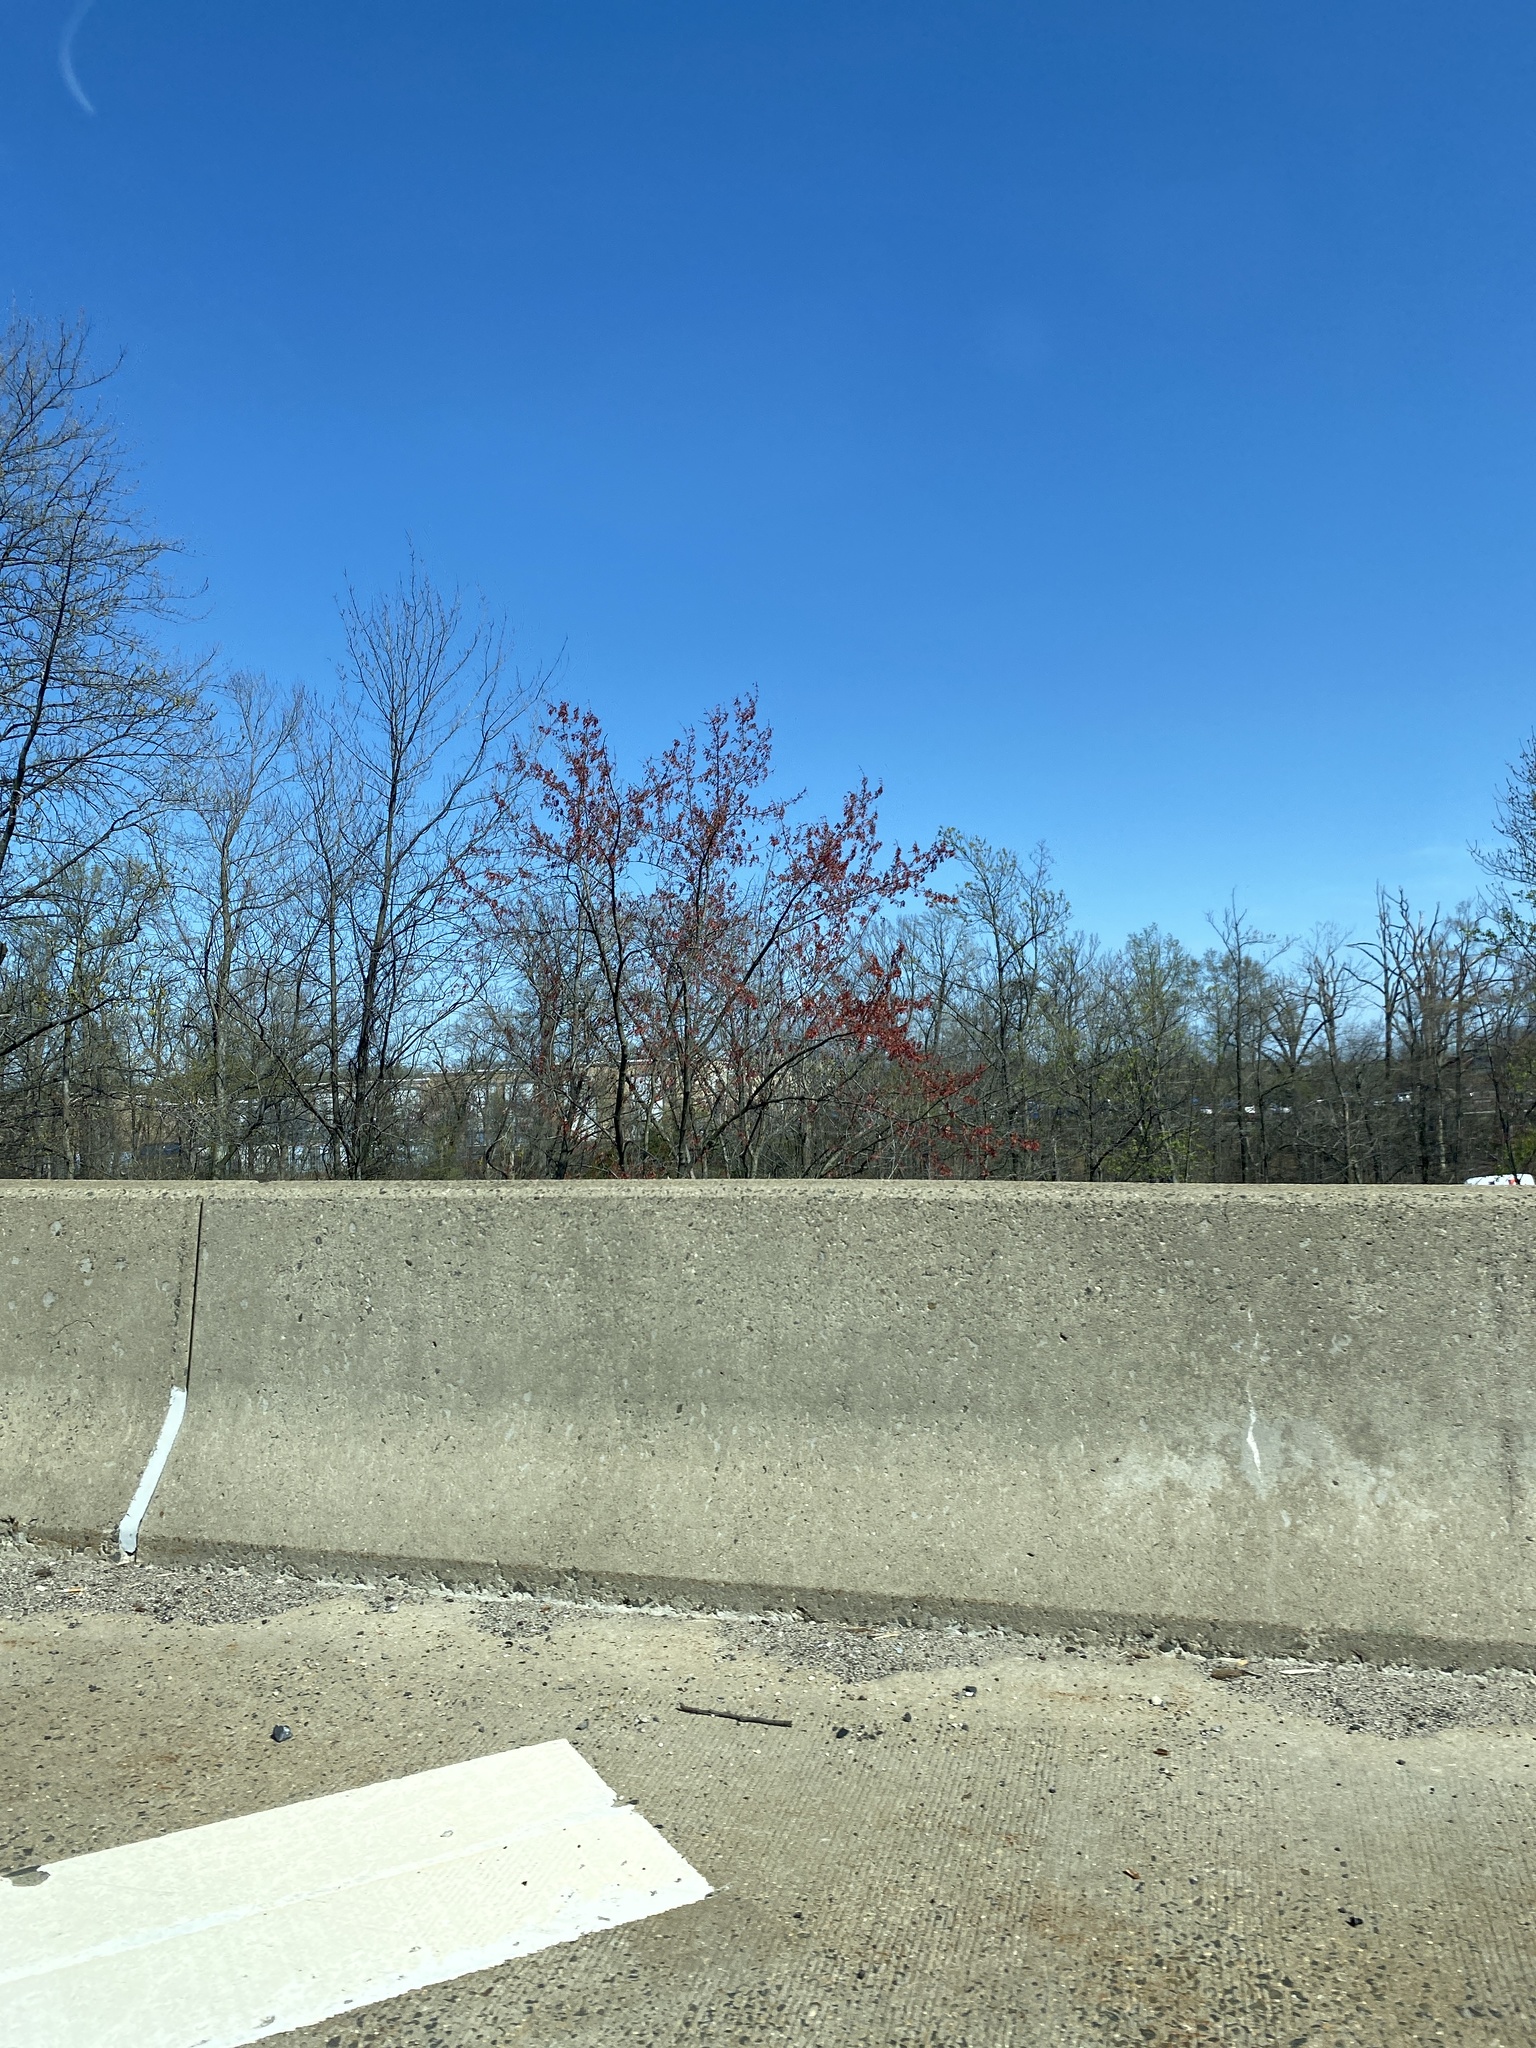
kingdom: Plantae
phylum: Tracheophyta
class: Magnoliopsida
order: Sapindales
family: Sapindaceae
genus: Acer
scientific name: Acer rubrum
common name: Red maple
